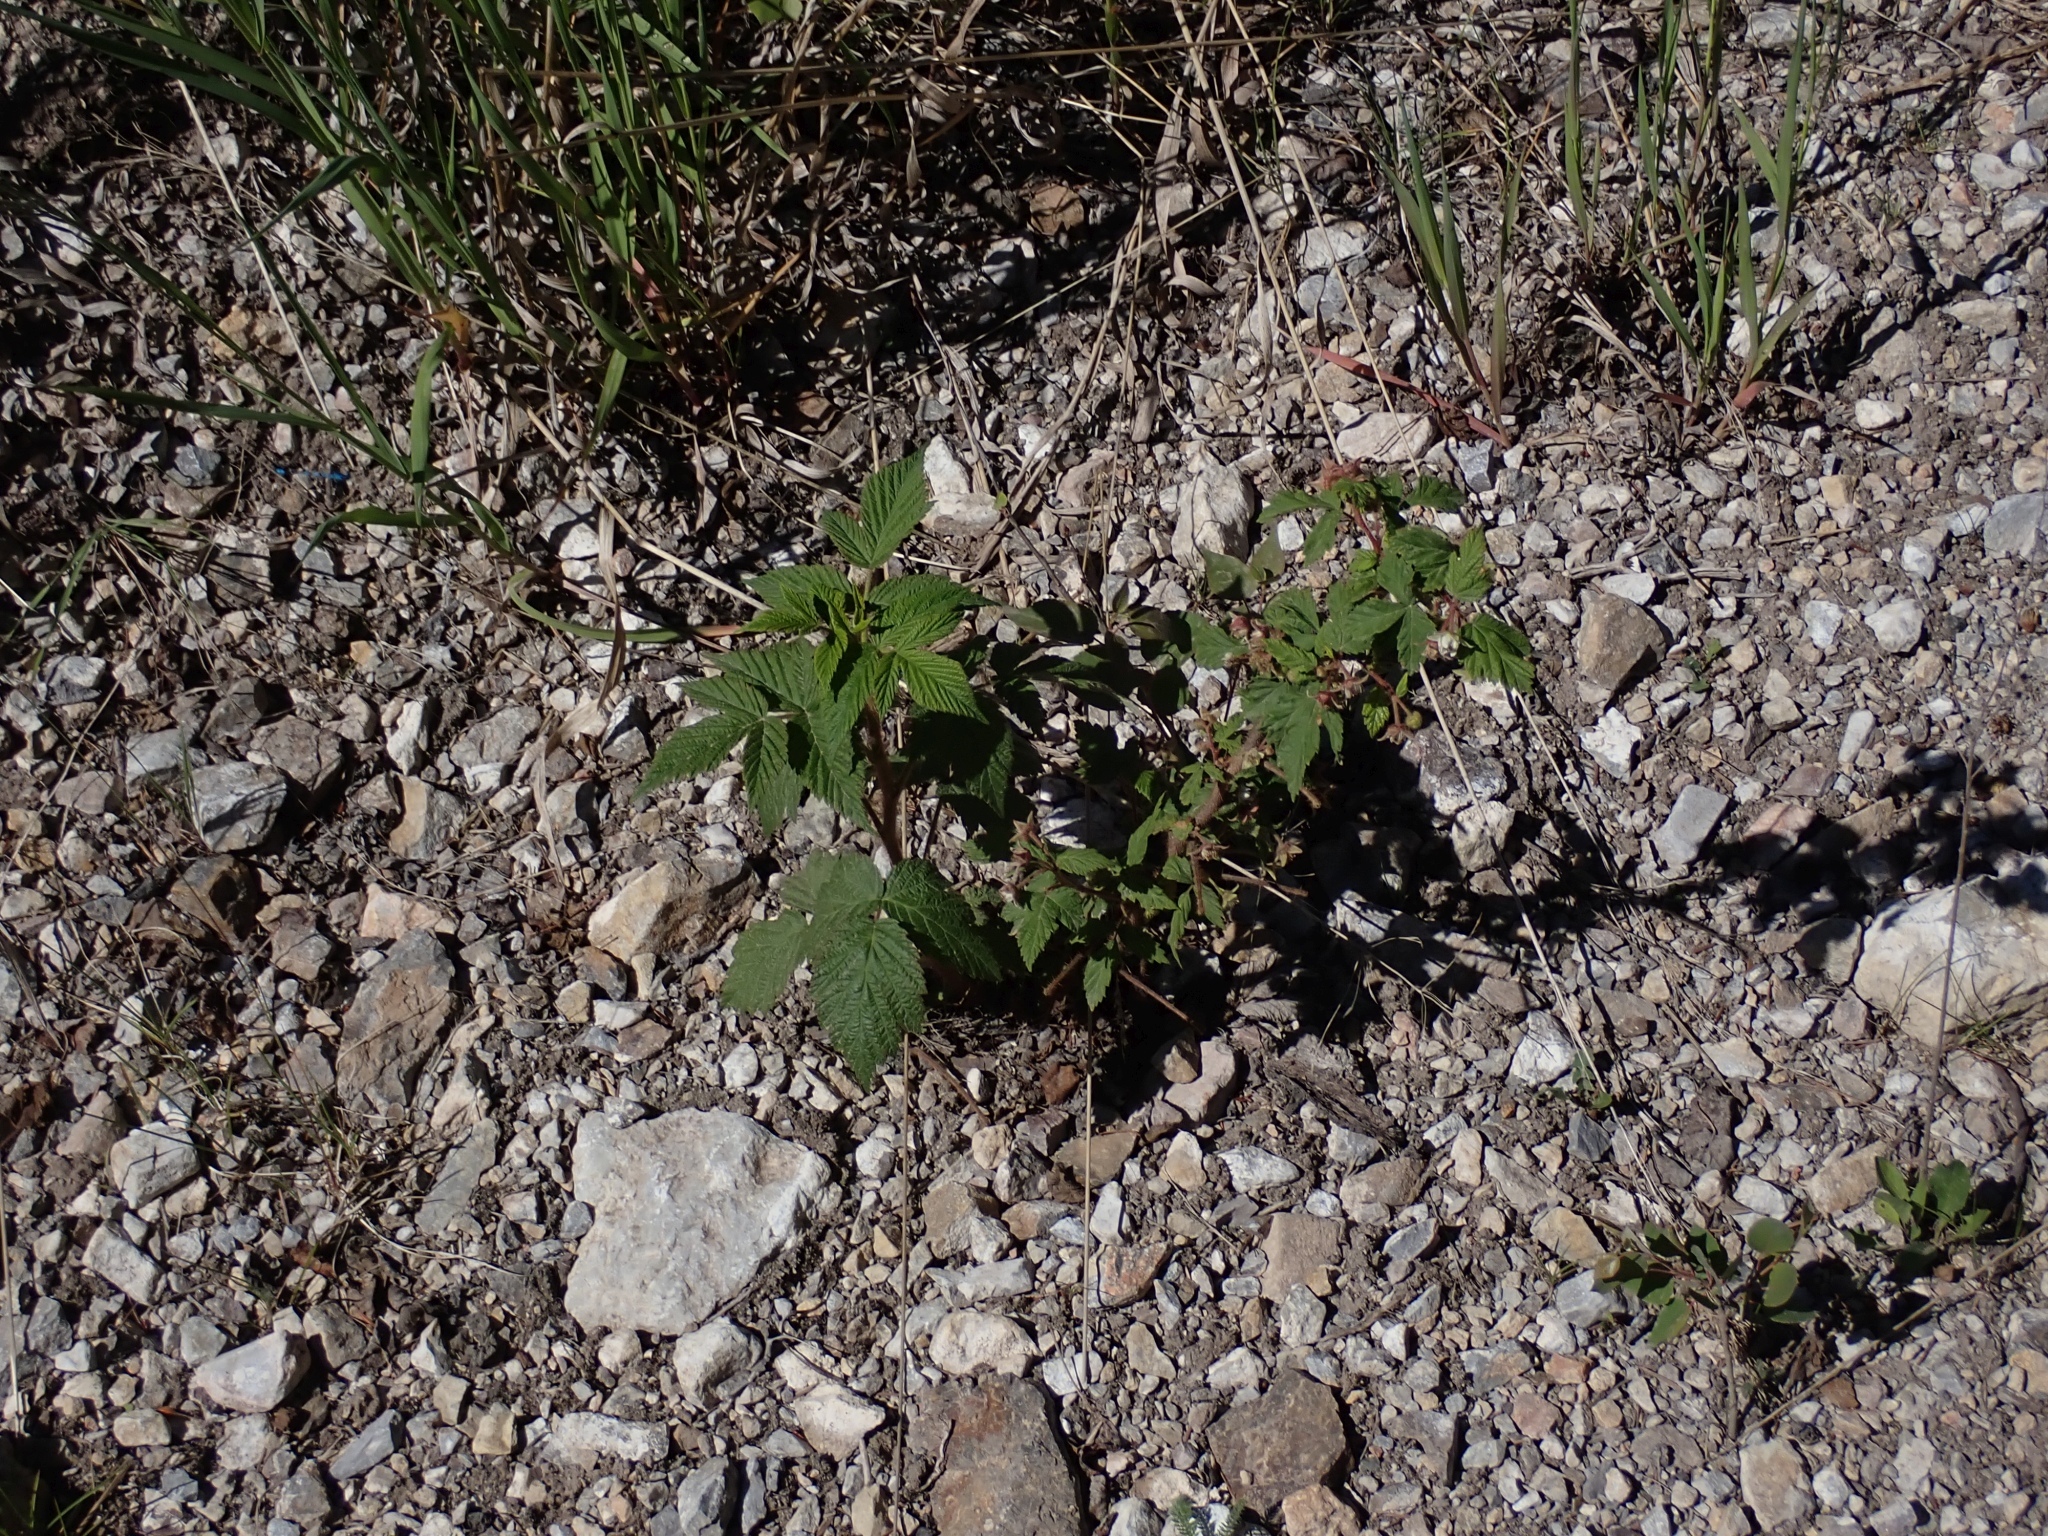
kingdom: Plantae
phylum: Tracheophyta
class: Magnoliopsida
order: Rosales
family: Rosaceae
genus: Rubus
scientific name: Rubus idaeus
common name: Raspberry
